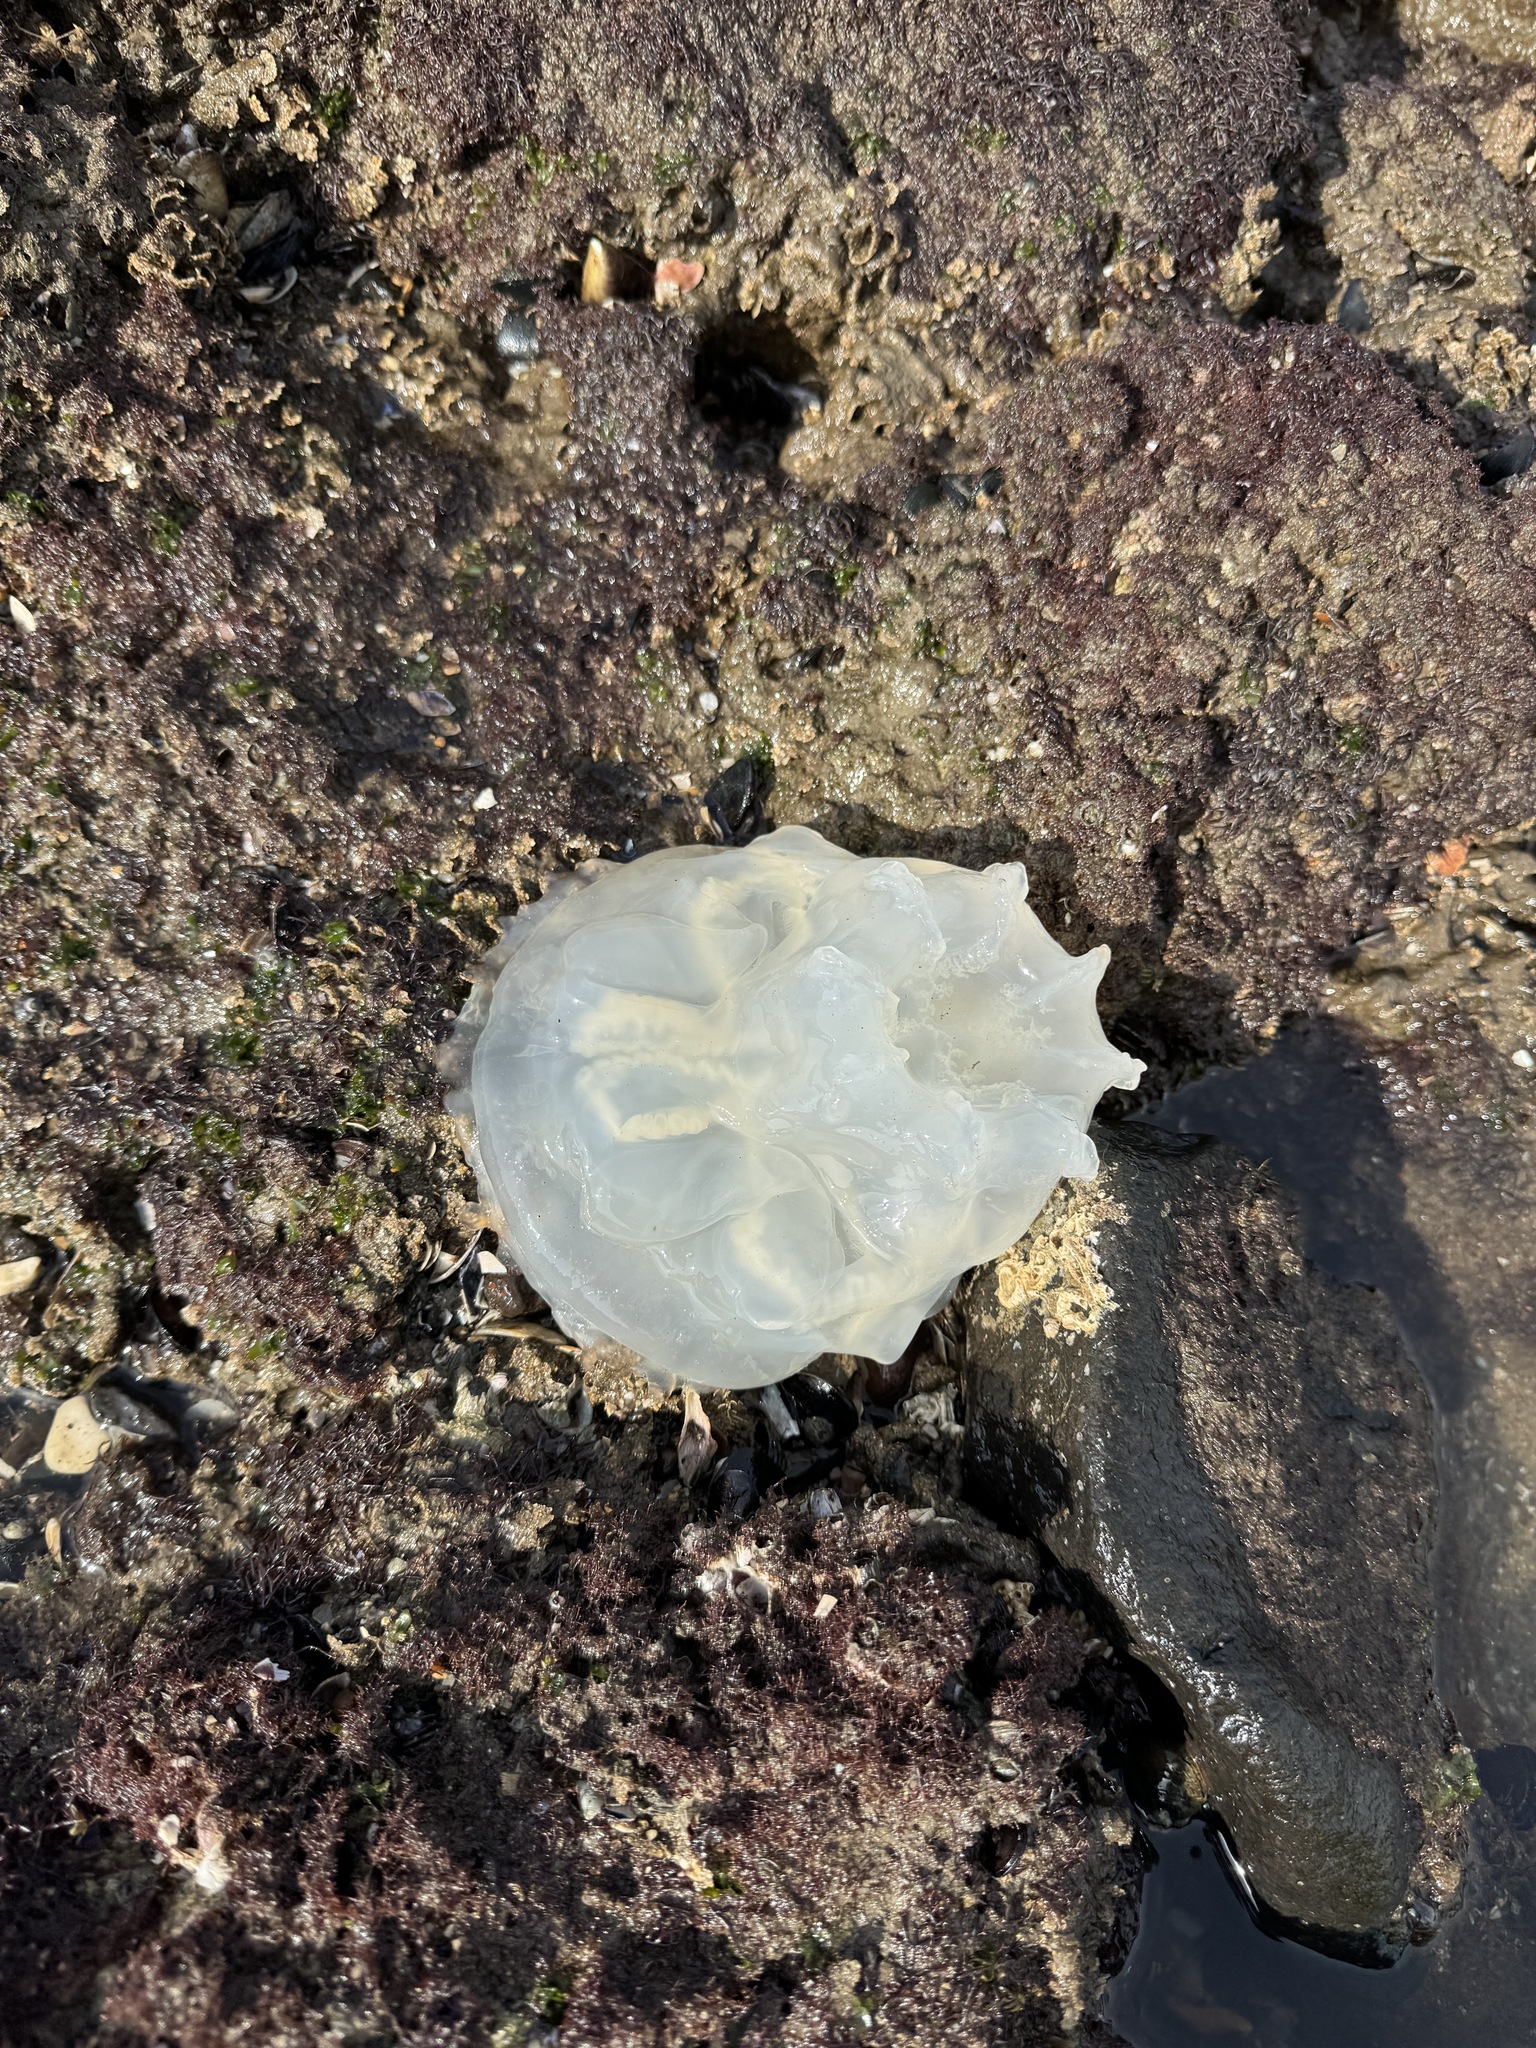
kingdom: Animalia
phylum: Cnidaria
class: Scyphozoa
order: Rhizostomeae
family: Catostylidae
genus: Catostylus
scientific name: Catostylus tagi
